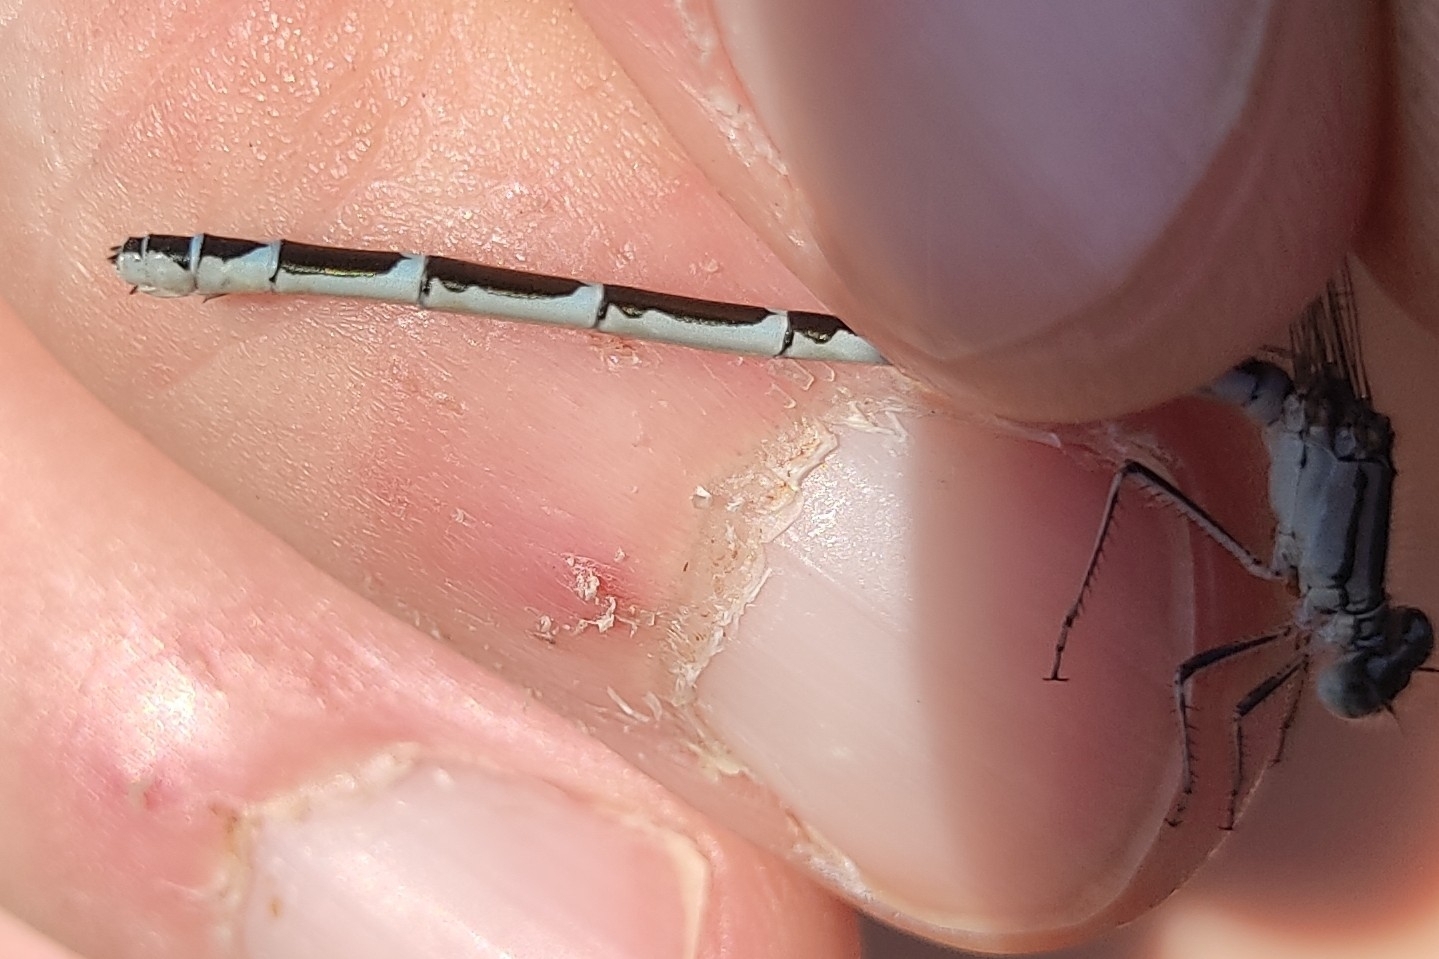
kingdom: Animalia
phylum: Arthropoda
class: Insecta
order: Odonata
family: Coenagrionidae
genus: Enallagma
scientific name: Enallagma cyathigerum
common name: Common blue damselfly
